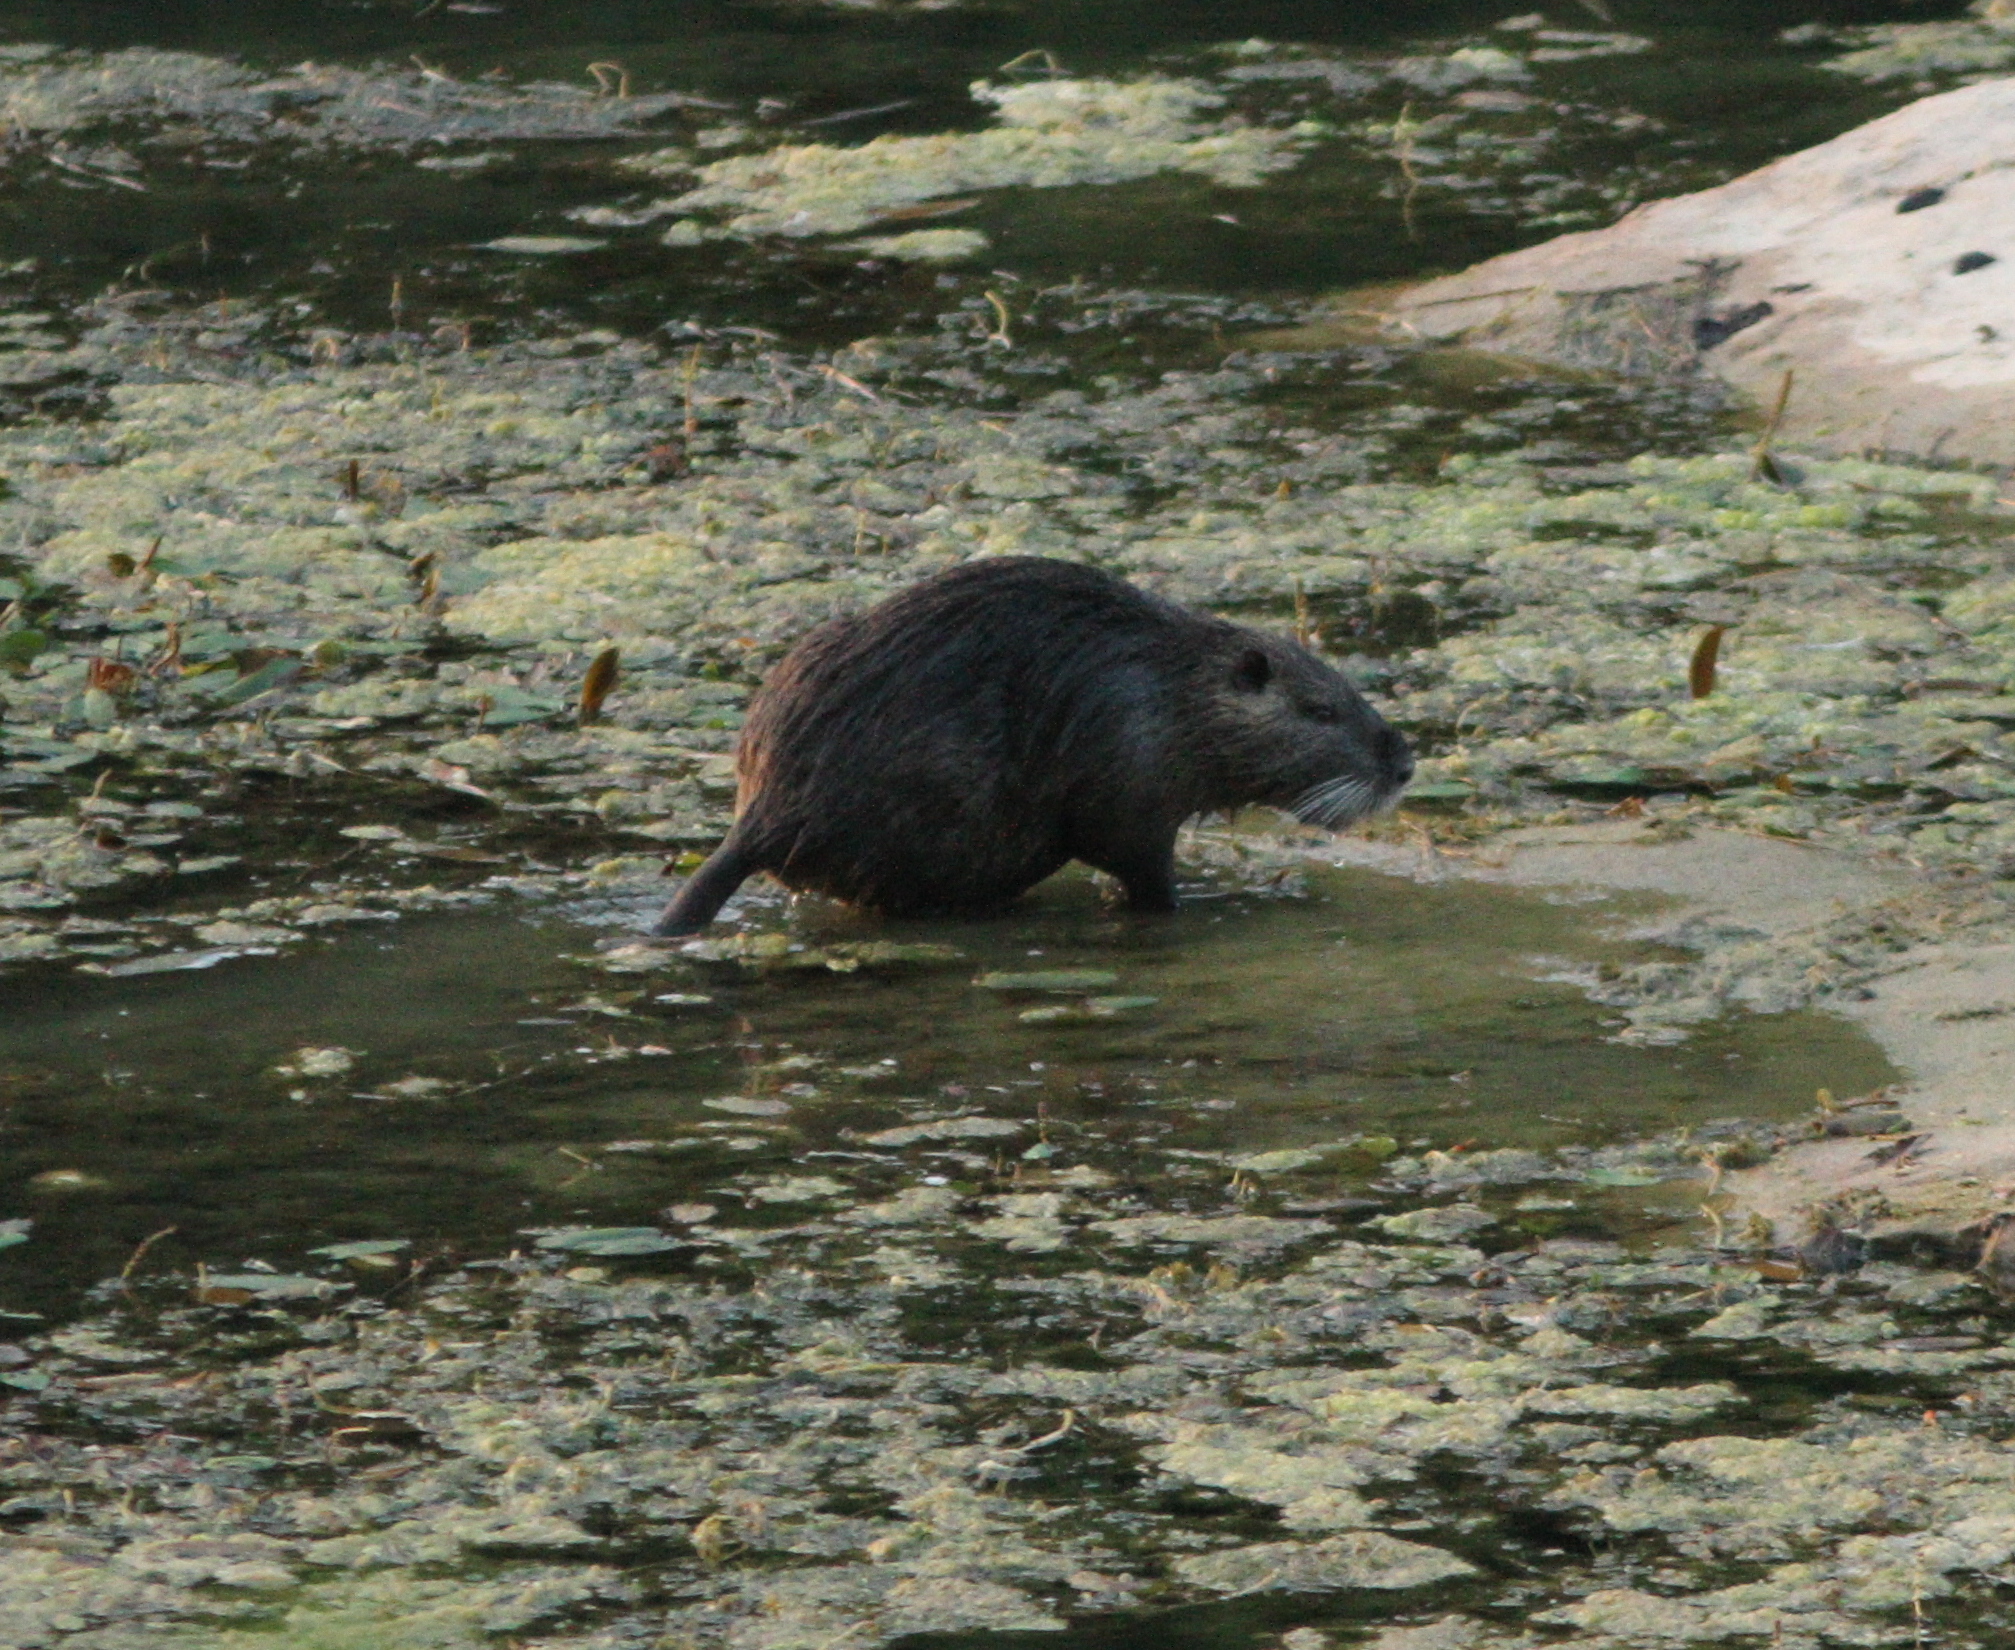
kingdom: Animalia
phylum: Chordata
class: Mammalia
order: Rodentia
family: Myocastoridae
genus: Myocastor
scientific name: Myocastor coypus
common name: Coypu
